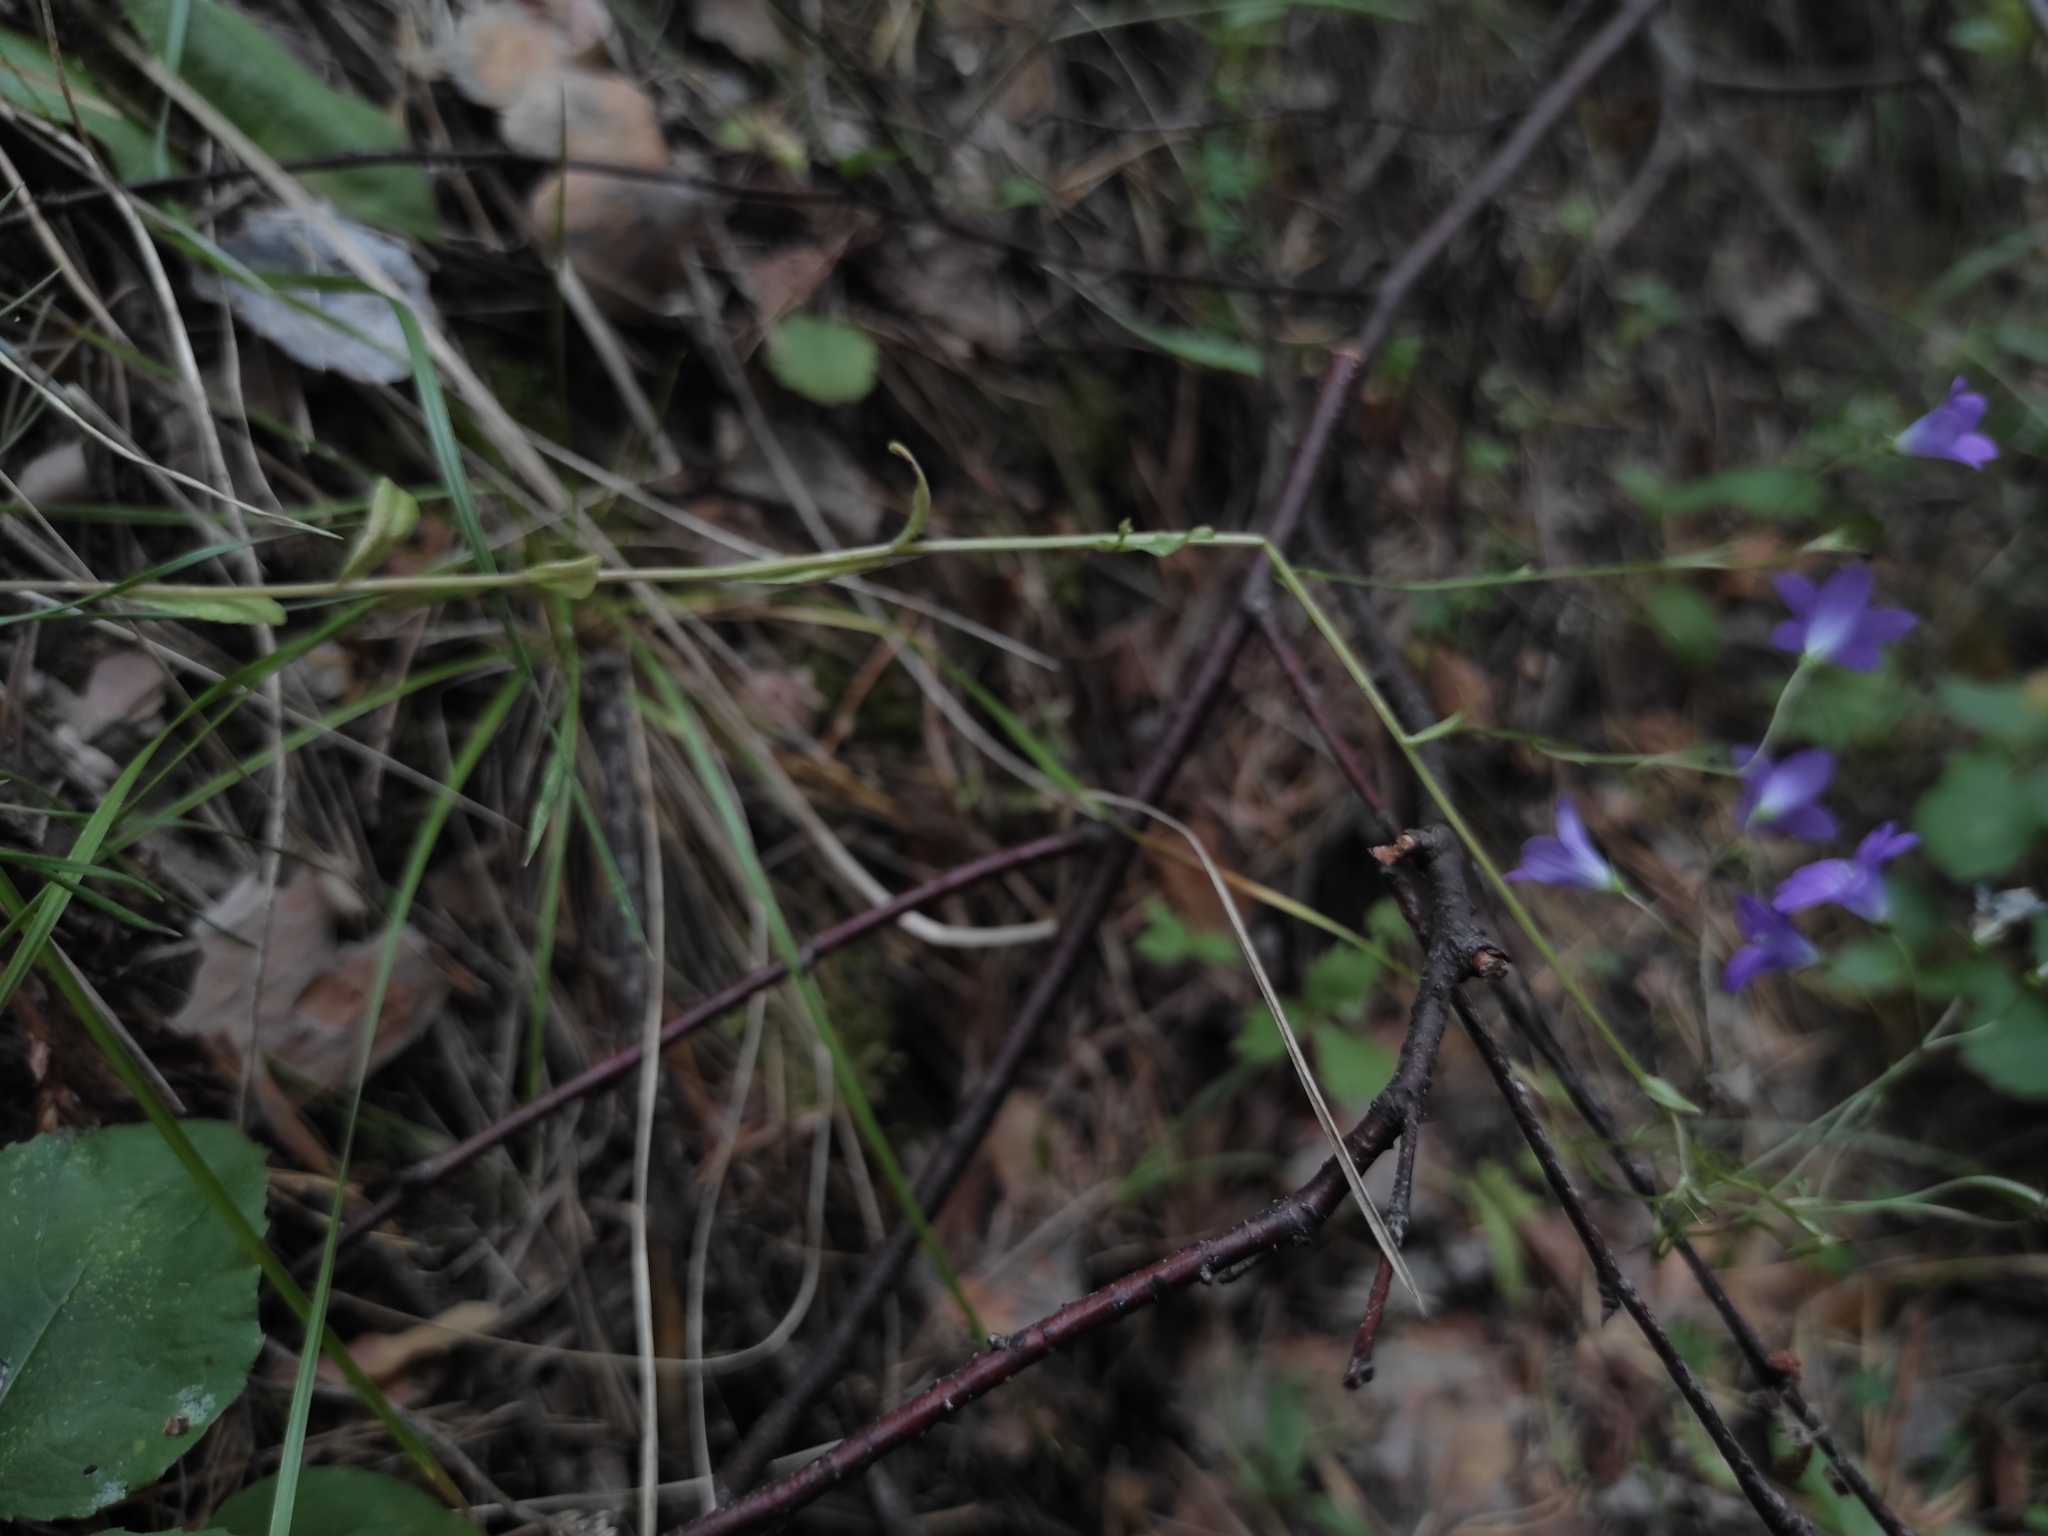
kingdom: Plantae
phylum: Tracheophyta
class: Magnoliopsida
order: Asterales
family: Campanulaceae
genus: Campanula
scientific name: Campanula patula
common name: Spreading bellflower
